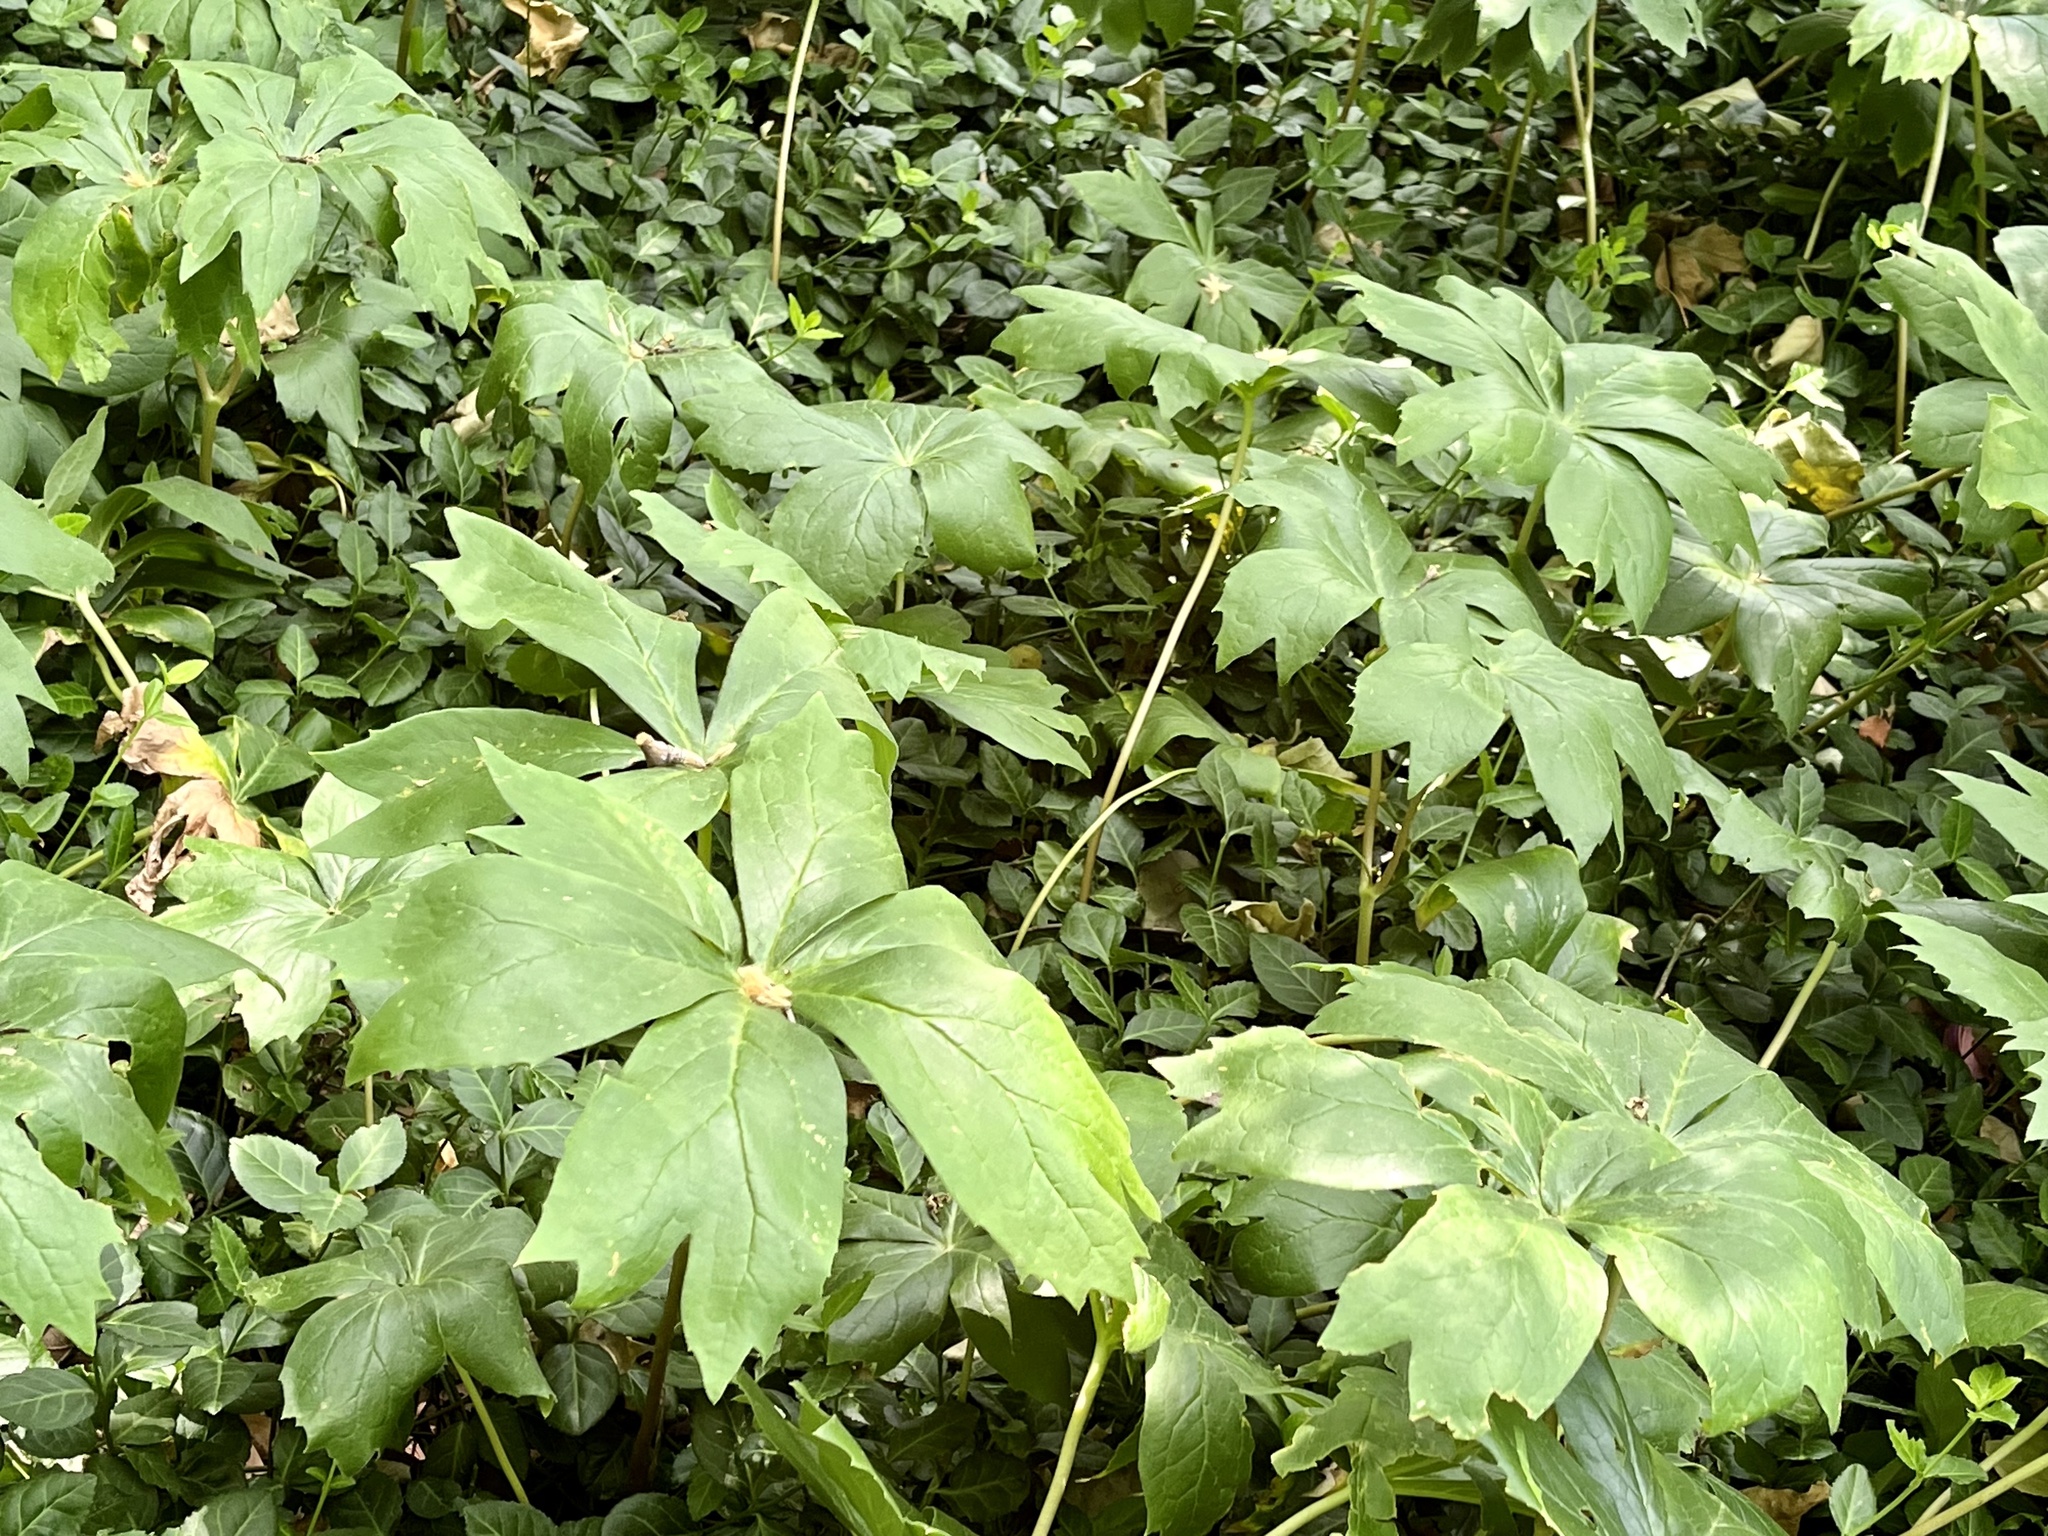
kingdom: Plantae
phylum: Tracheophyta
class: Magnoliopsida
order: Ranunculales
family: Berberidaceae
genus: Podophyllum
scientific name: Podophyllum peltatum
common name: Wild mandrake
